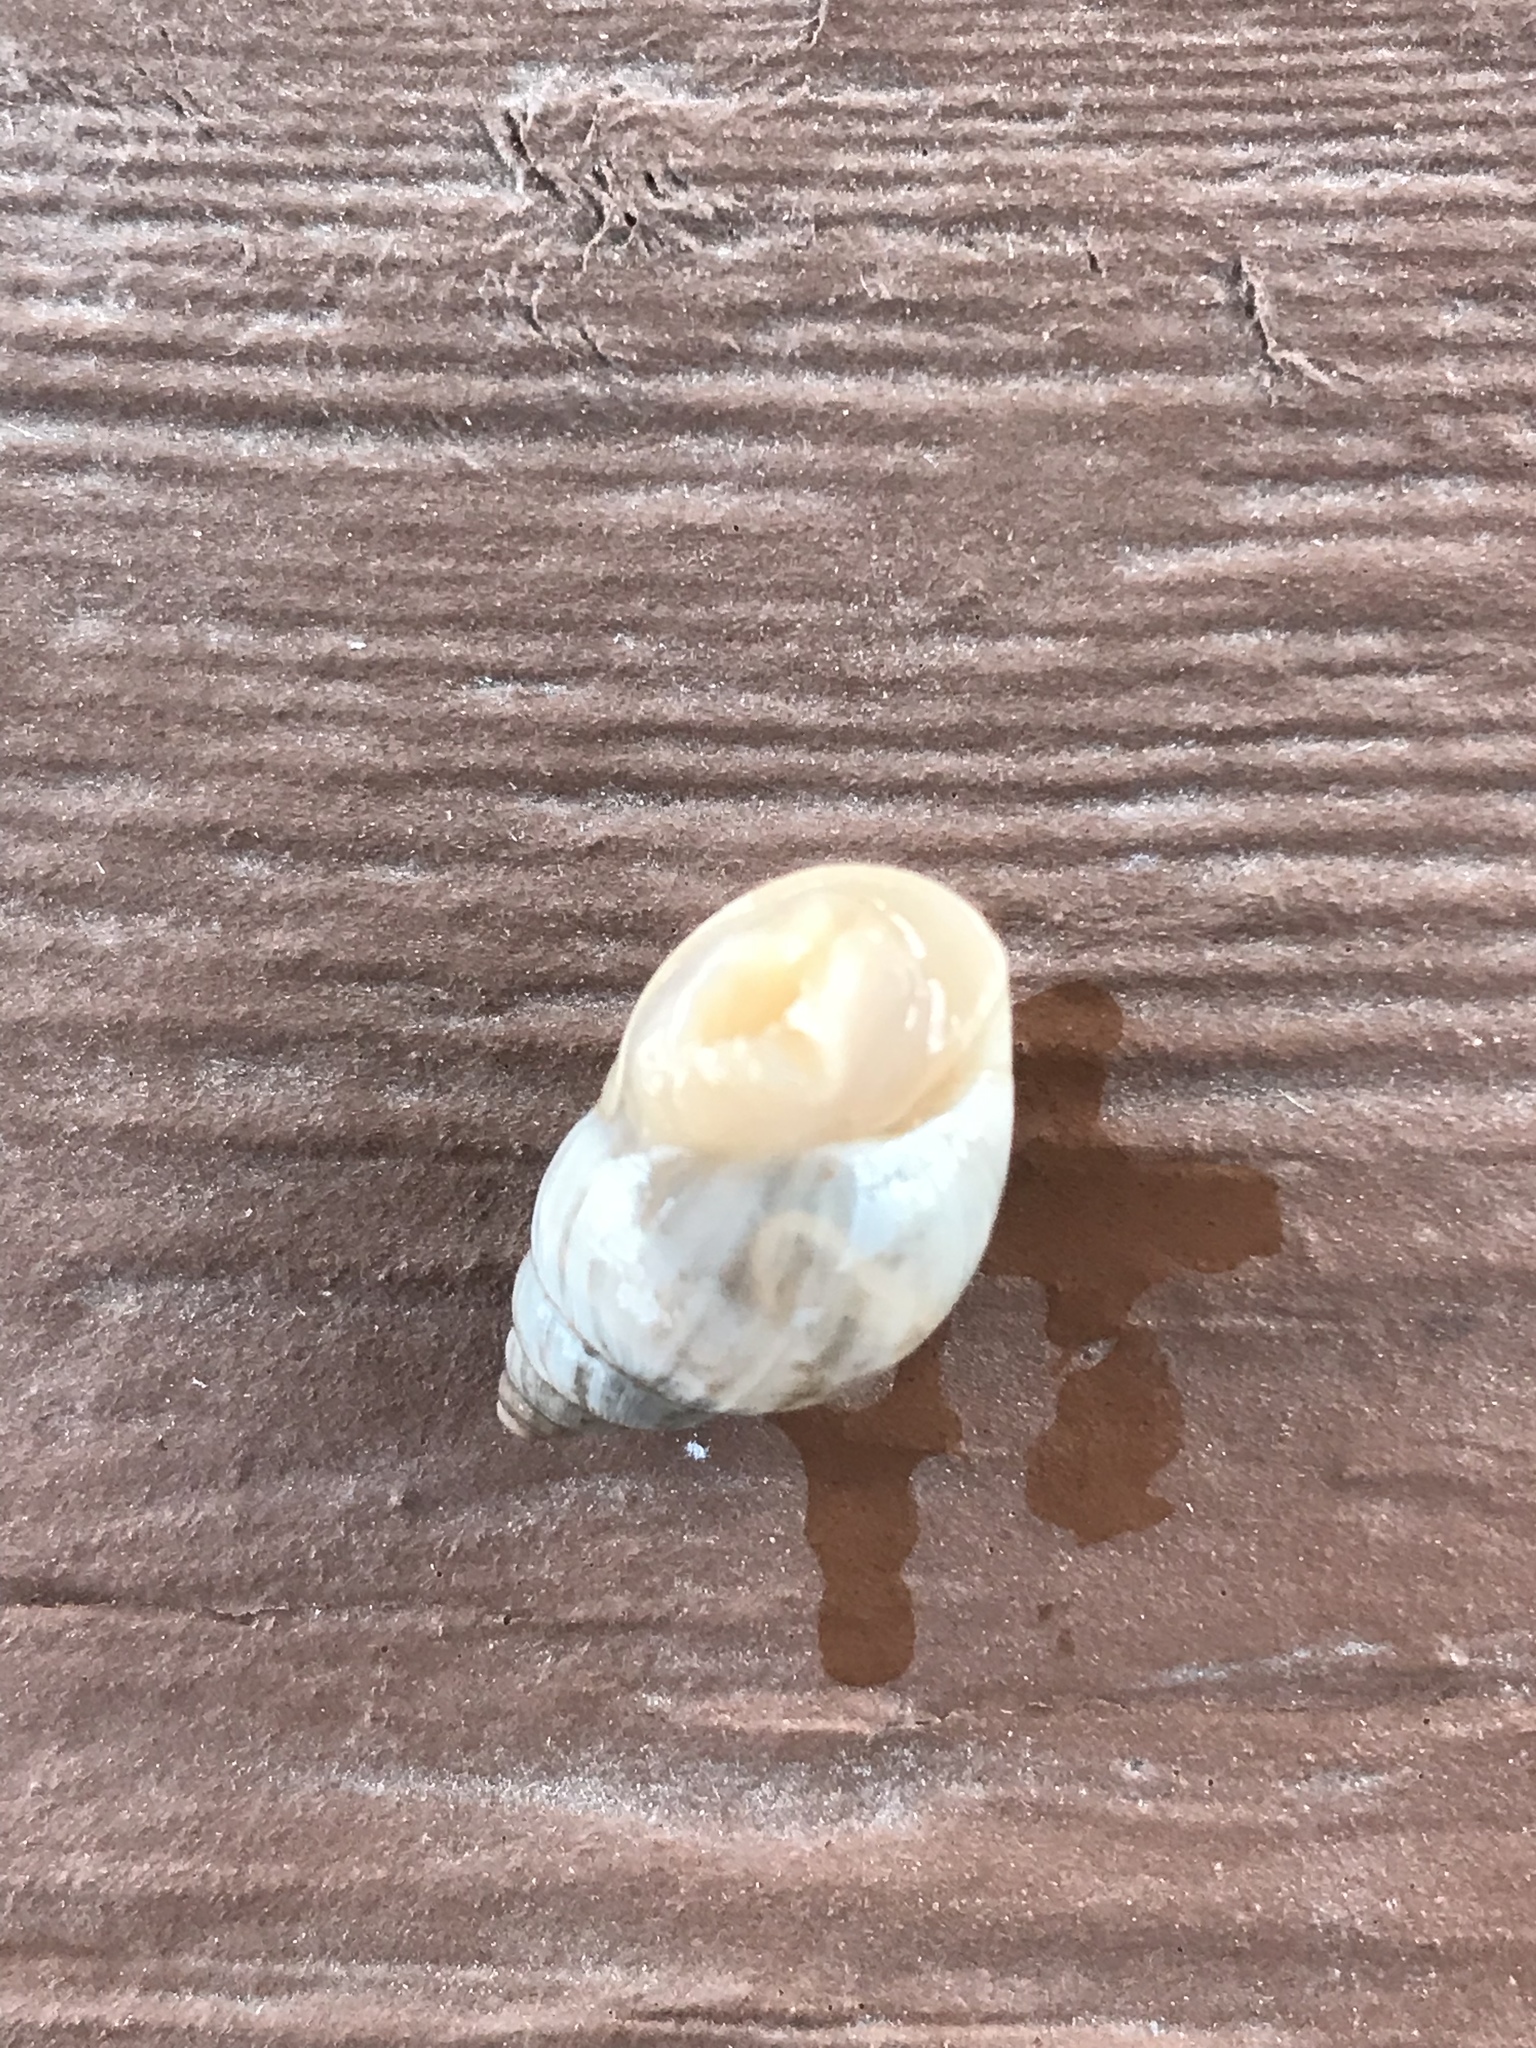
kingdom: Animalia
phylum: Mollusca
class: Gastropoda
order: Stylommatophora
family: Bulimulidae
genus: Rabdotus
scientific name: Rabdotus dealbatus
